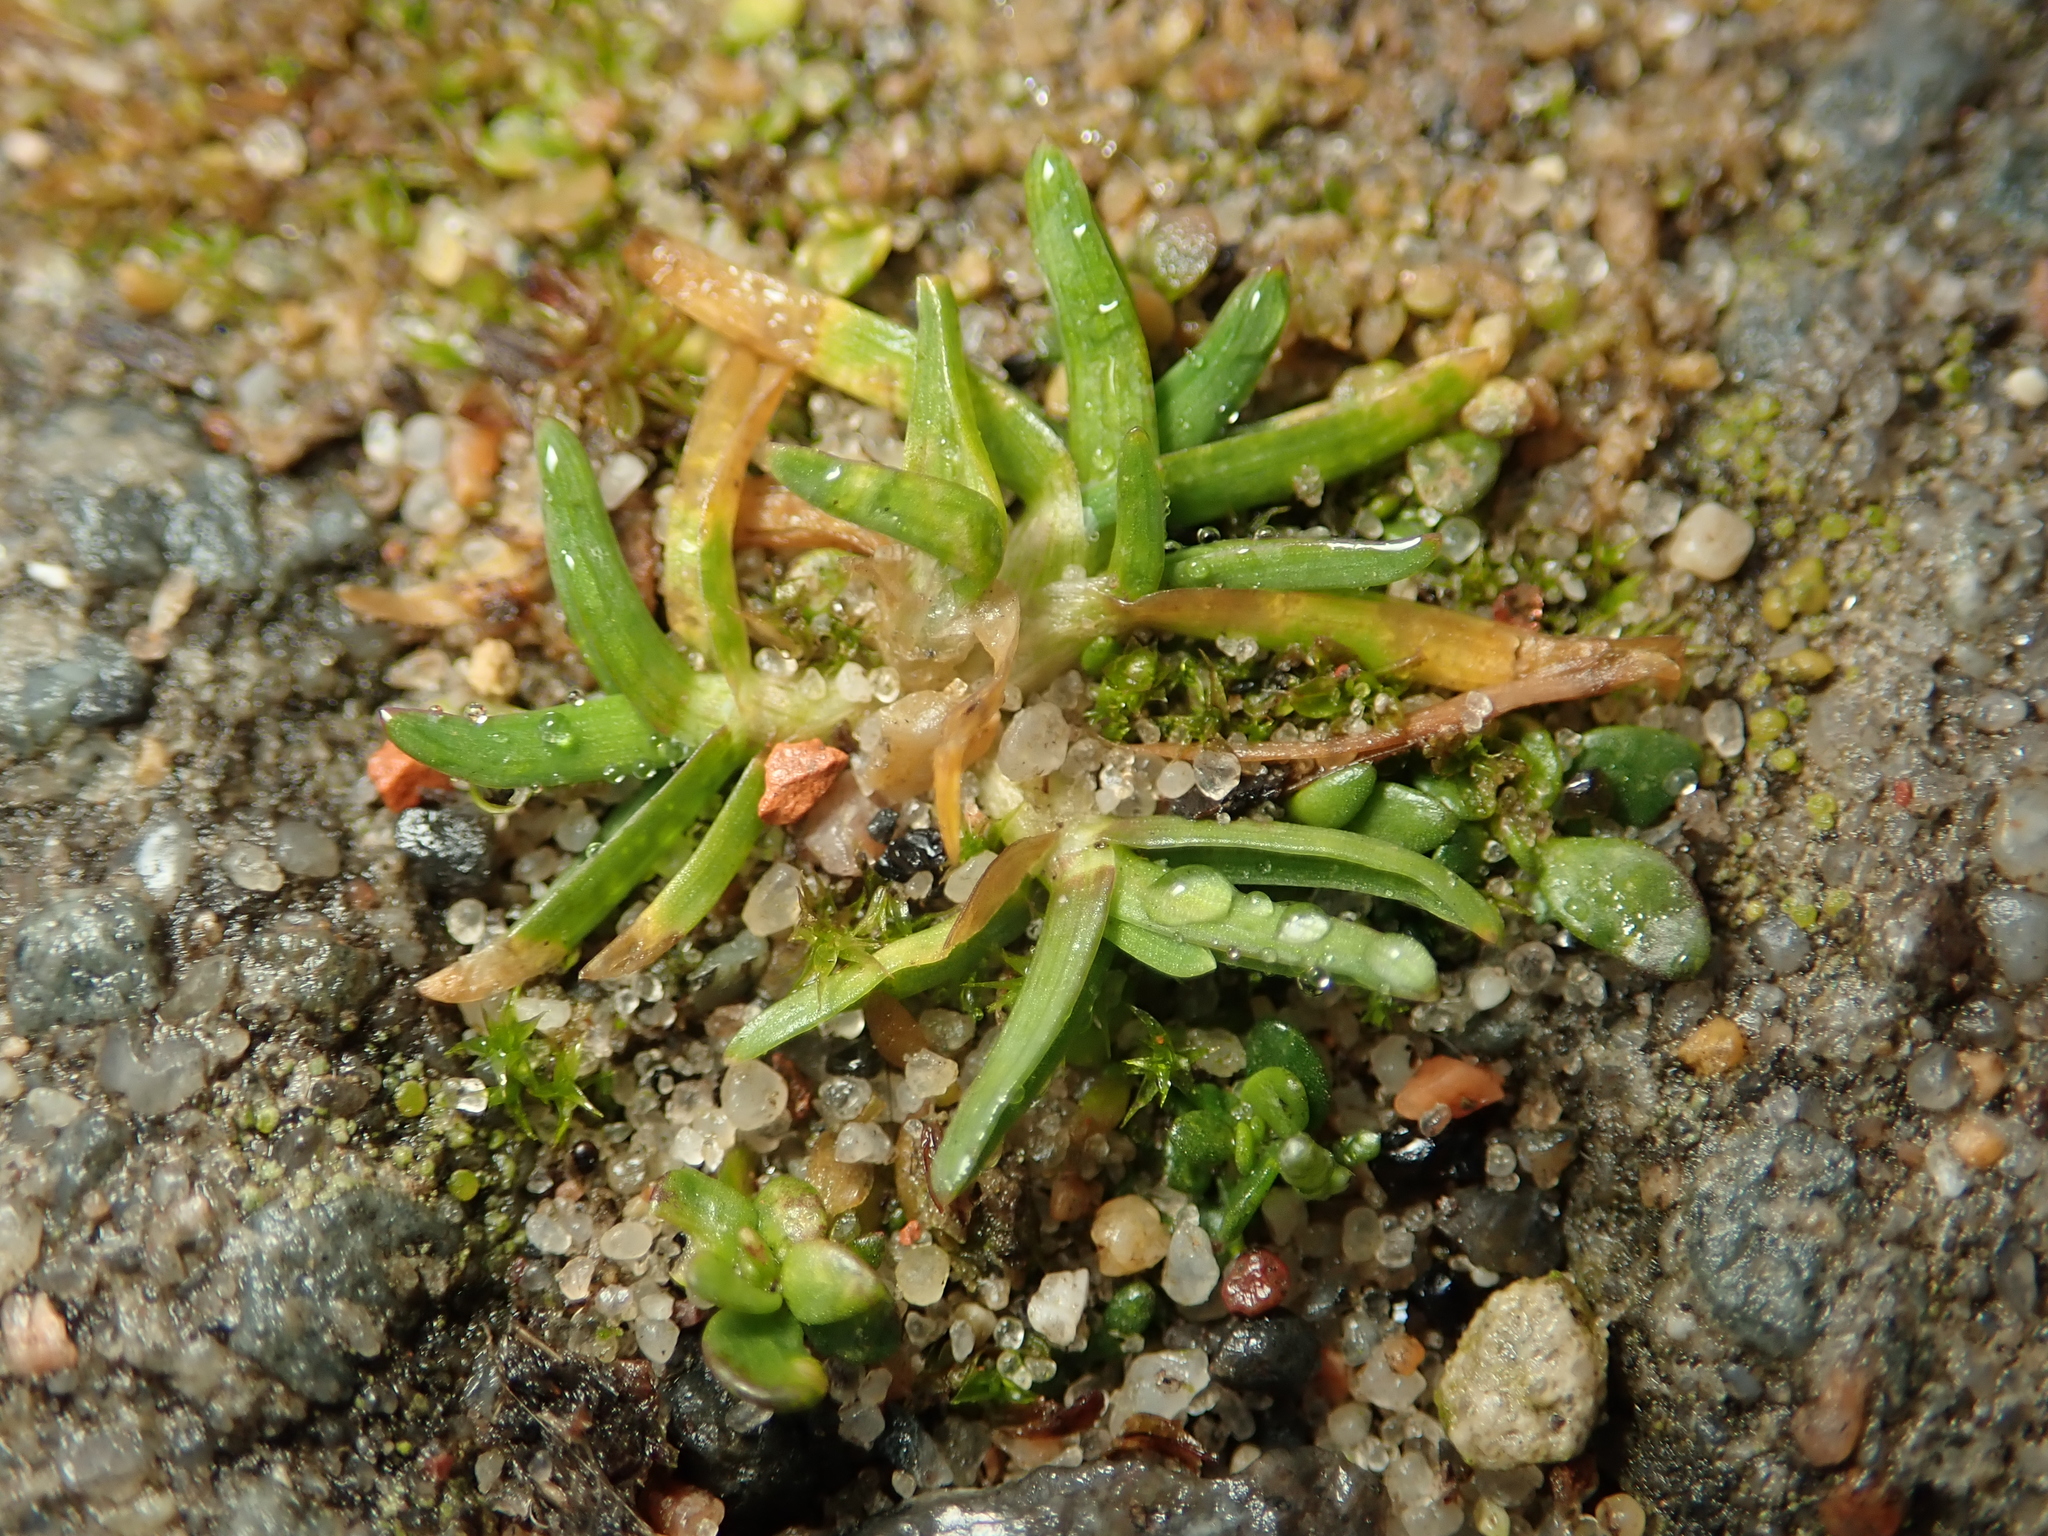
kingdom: Plantae
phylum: Tracheophyta
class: Magnoliopsida
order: Caryophyllales
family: Caryophyllaceae
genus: Sagina
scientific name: Sagina procumbens
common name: Procumbent pearlwort
